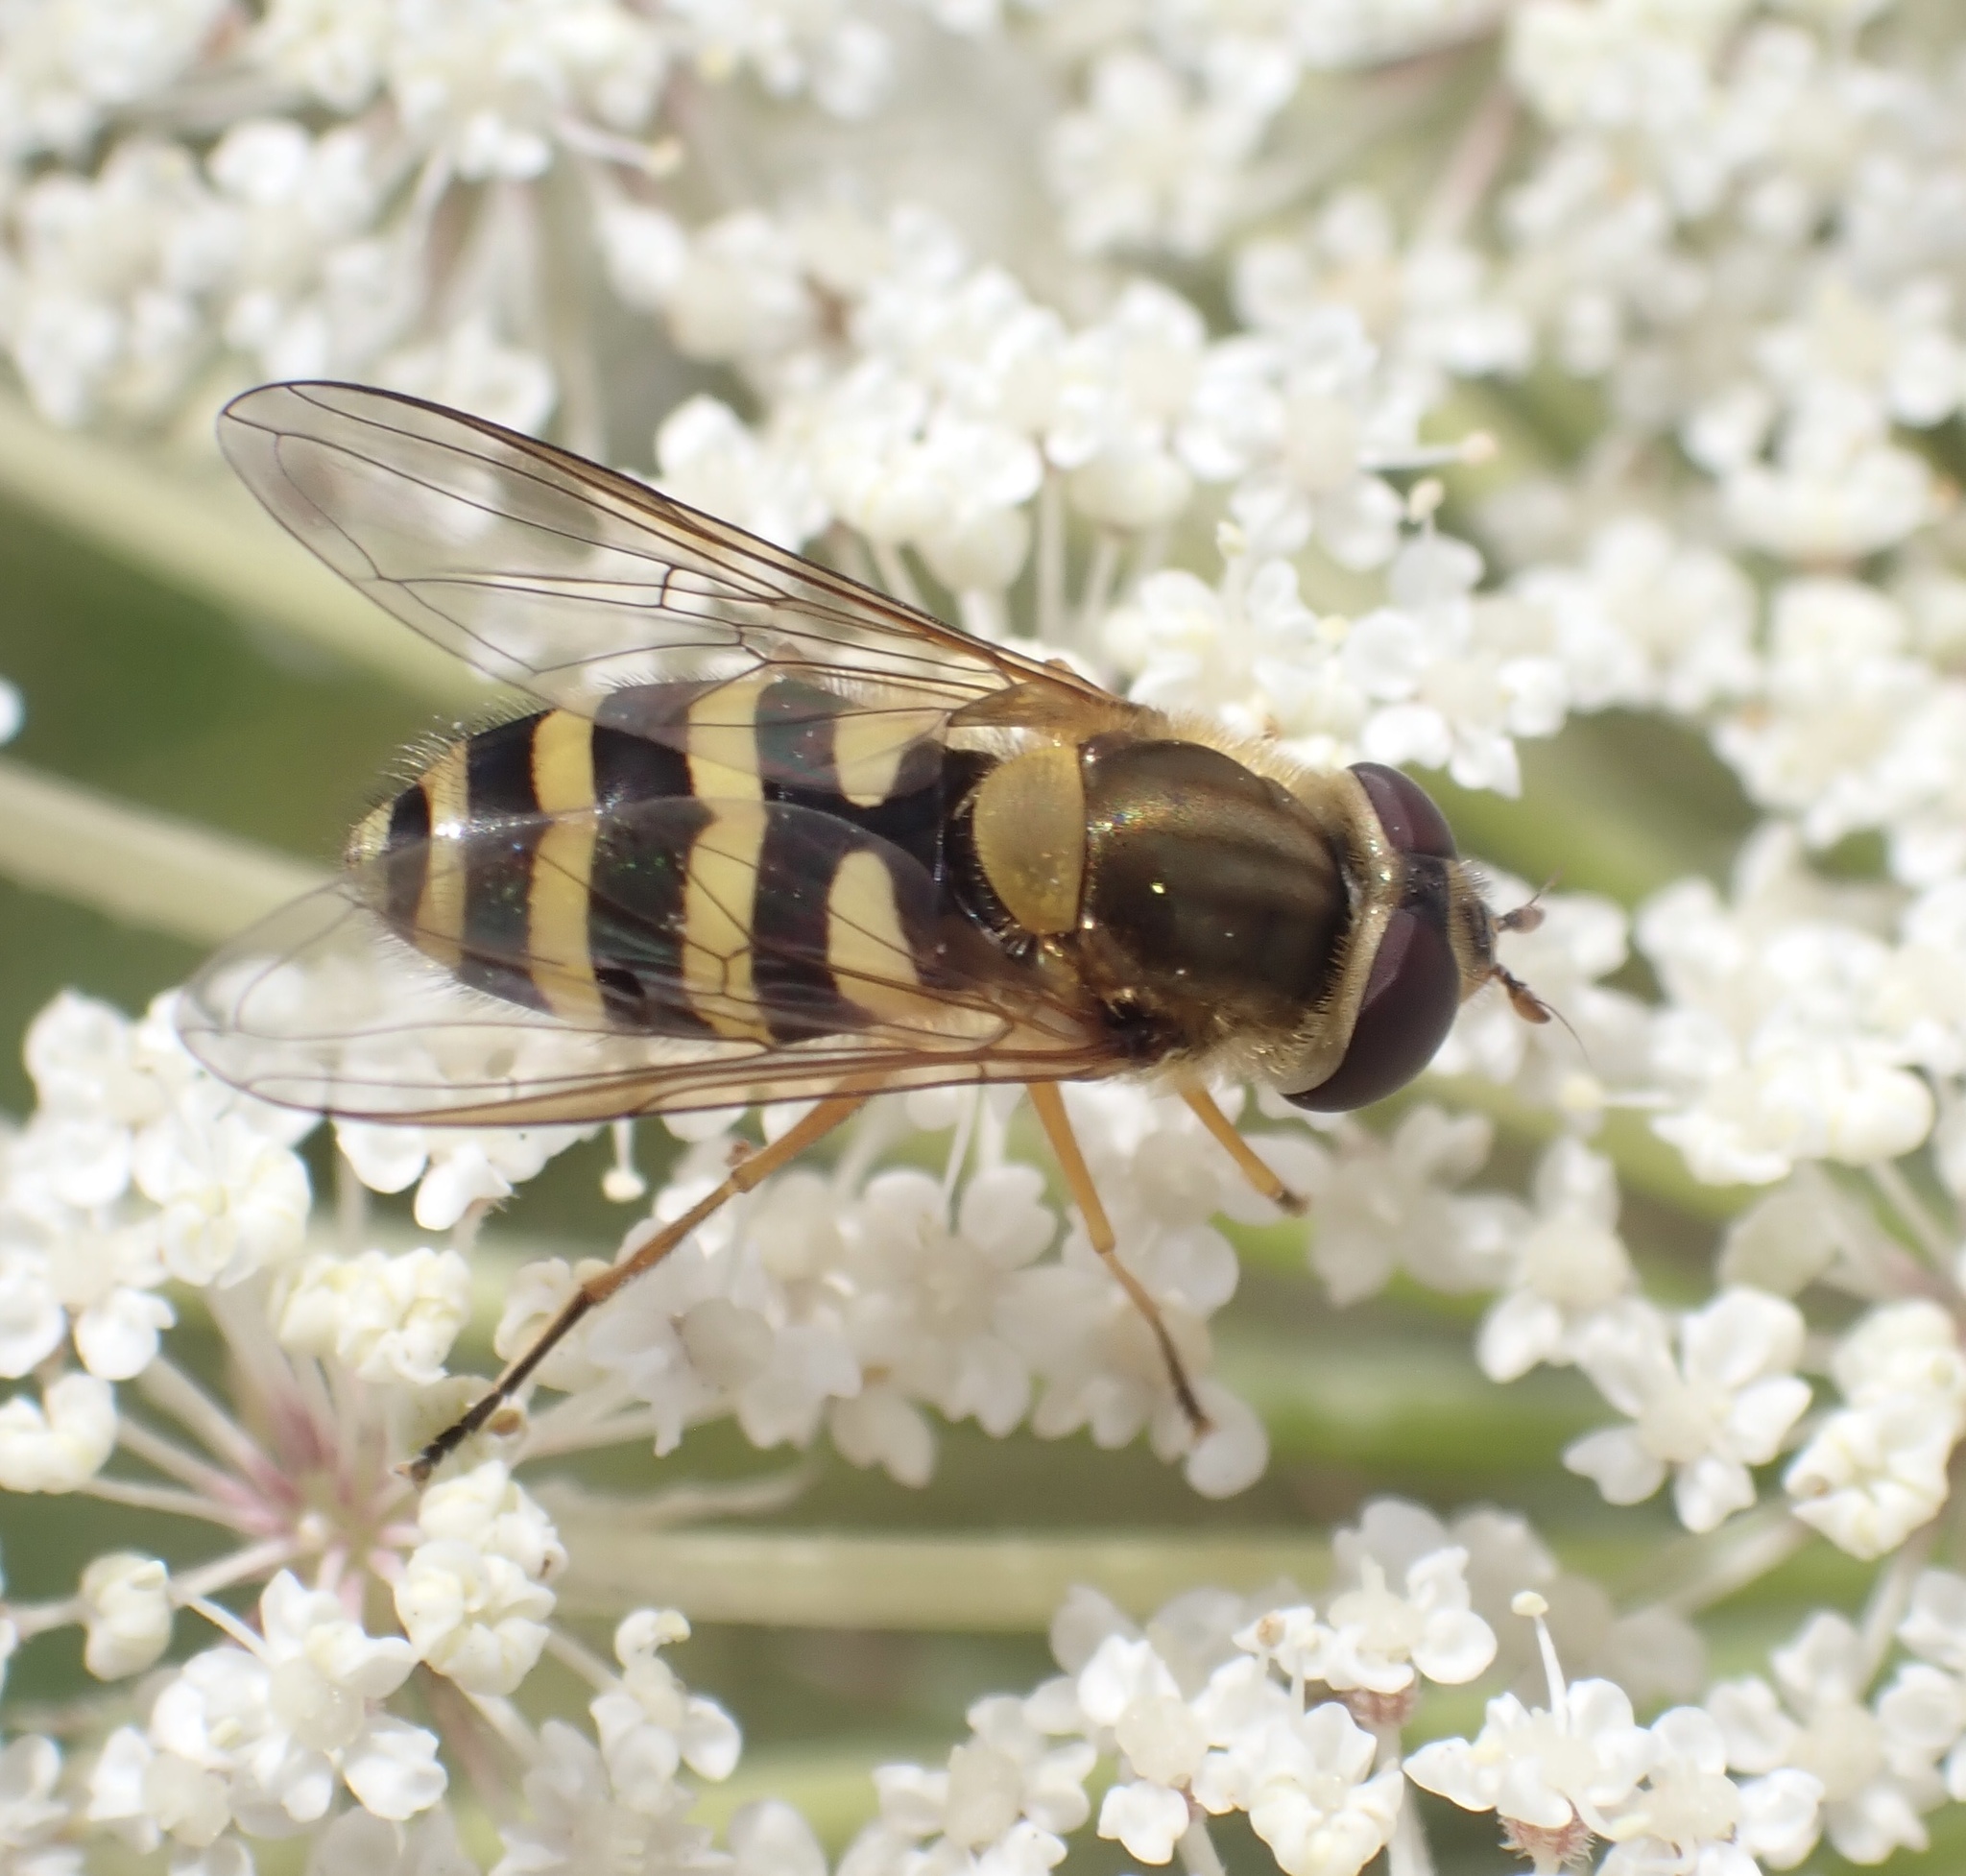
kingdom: Animalia
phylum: Arthropoda
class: Insecta
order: Diptera
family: Syrphidae
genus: Syrphus
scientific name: Syrphus ribesii
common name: Common flower fly
